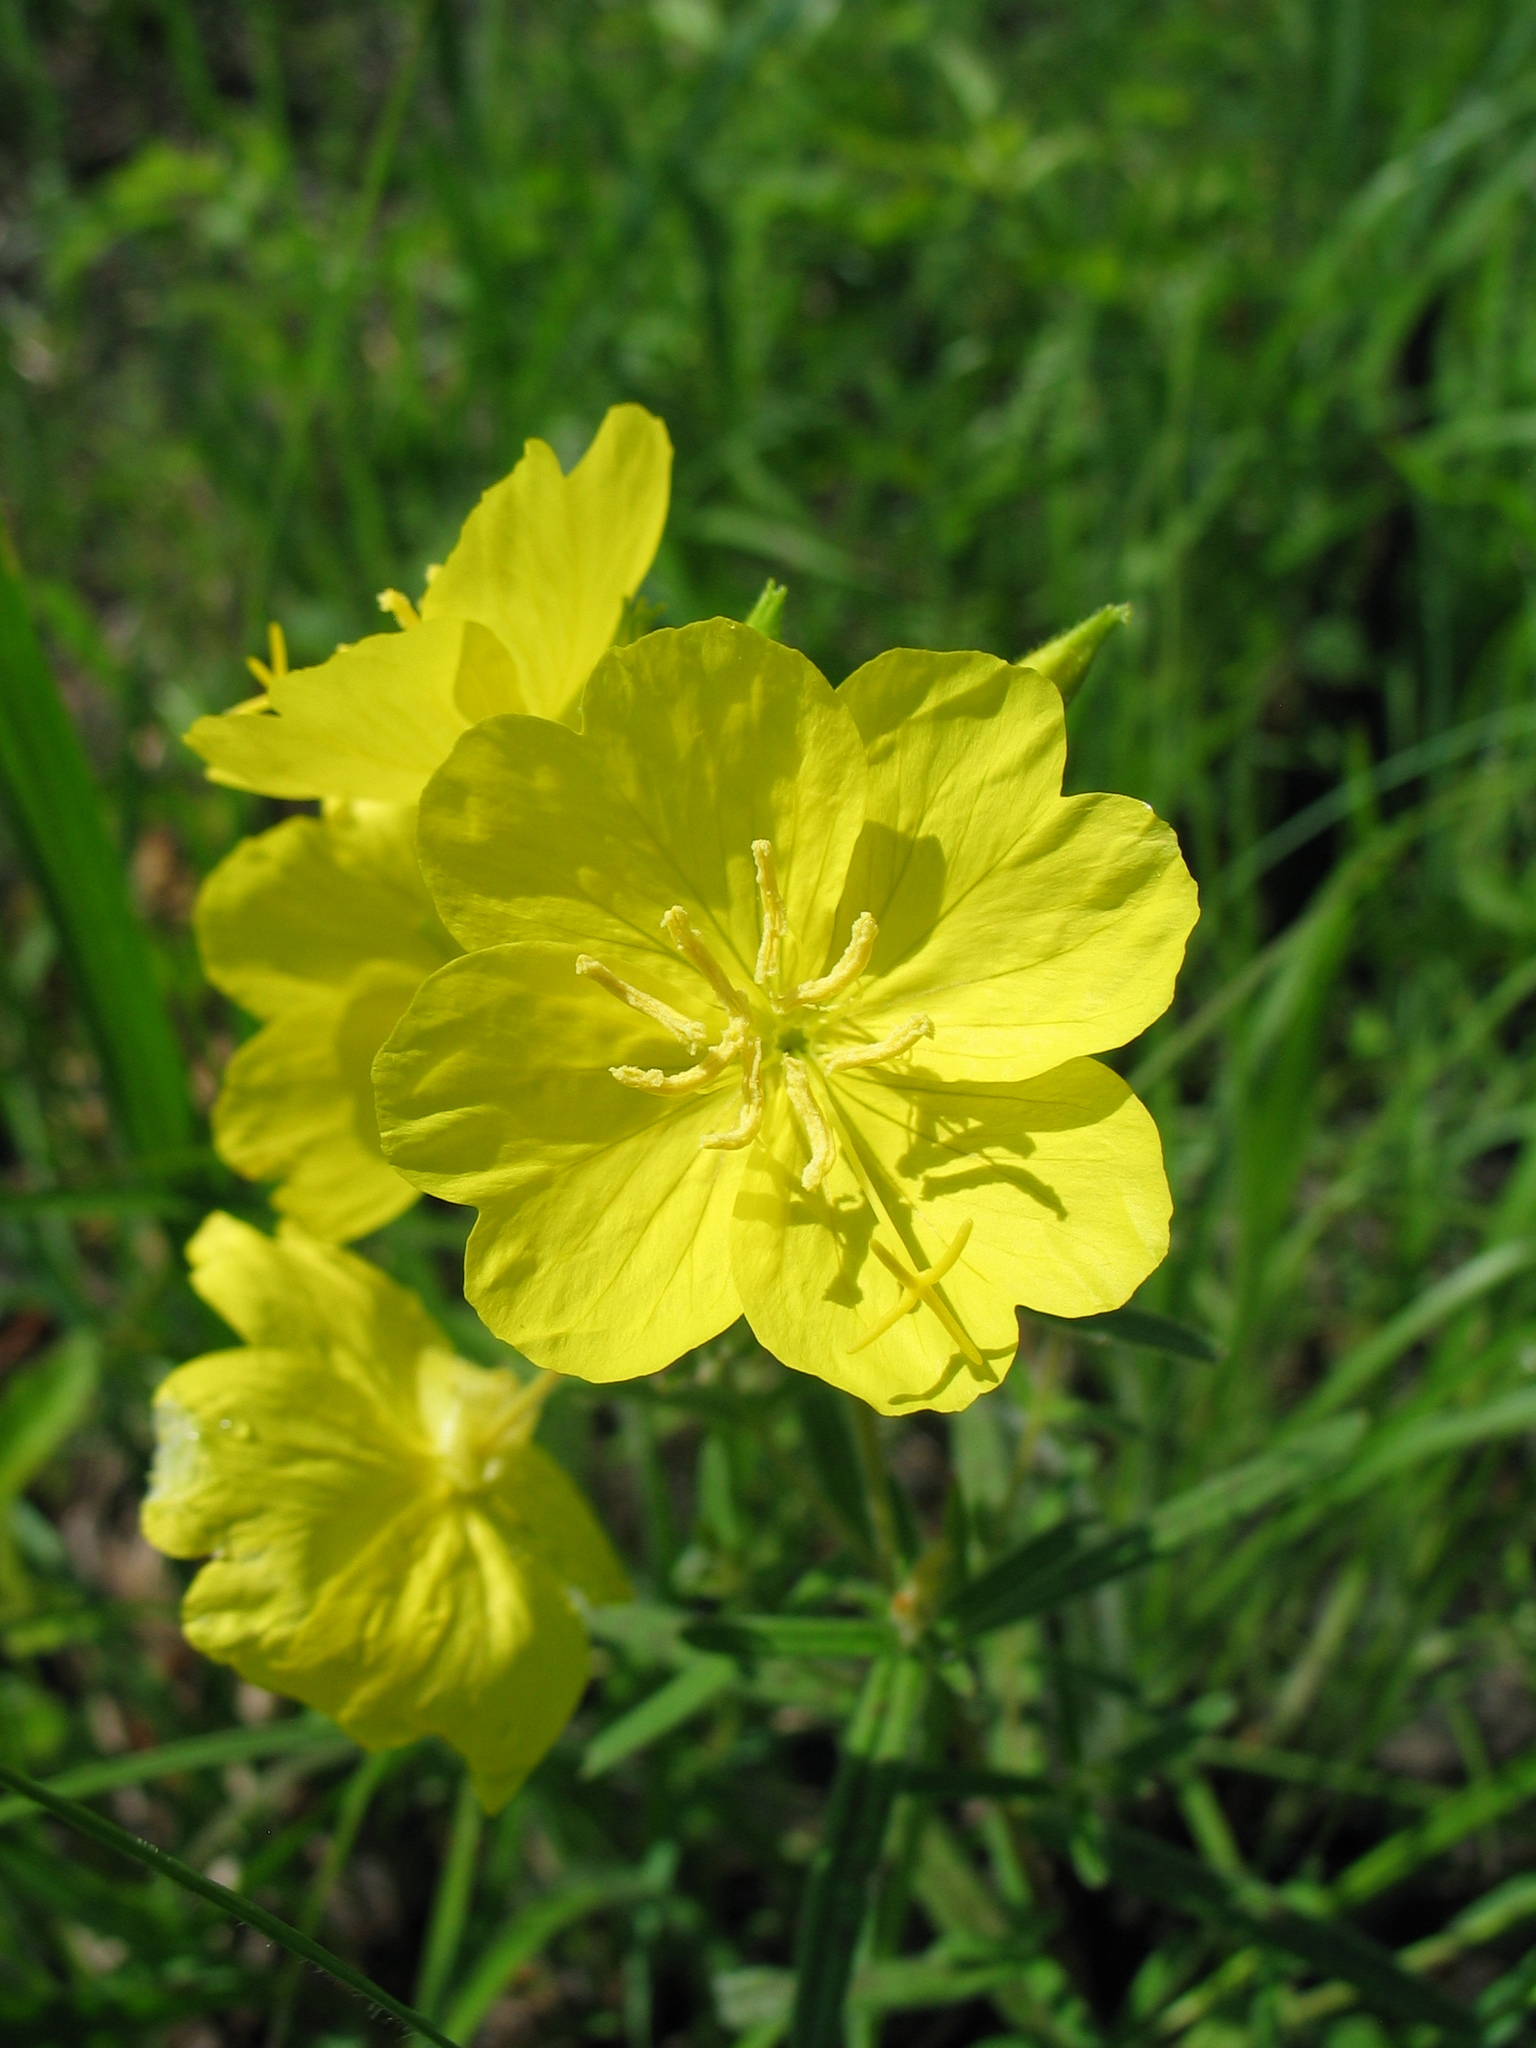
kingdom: Plantae
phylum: Tracheophyta
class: Magnoliopsida
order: Myrtales
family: Onagraceae
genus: Oenothera
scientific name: Oenothera fruticosa
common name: Southern sundrops
